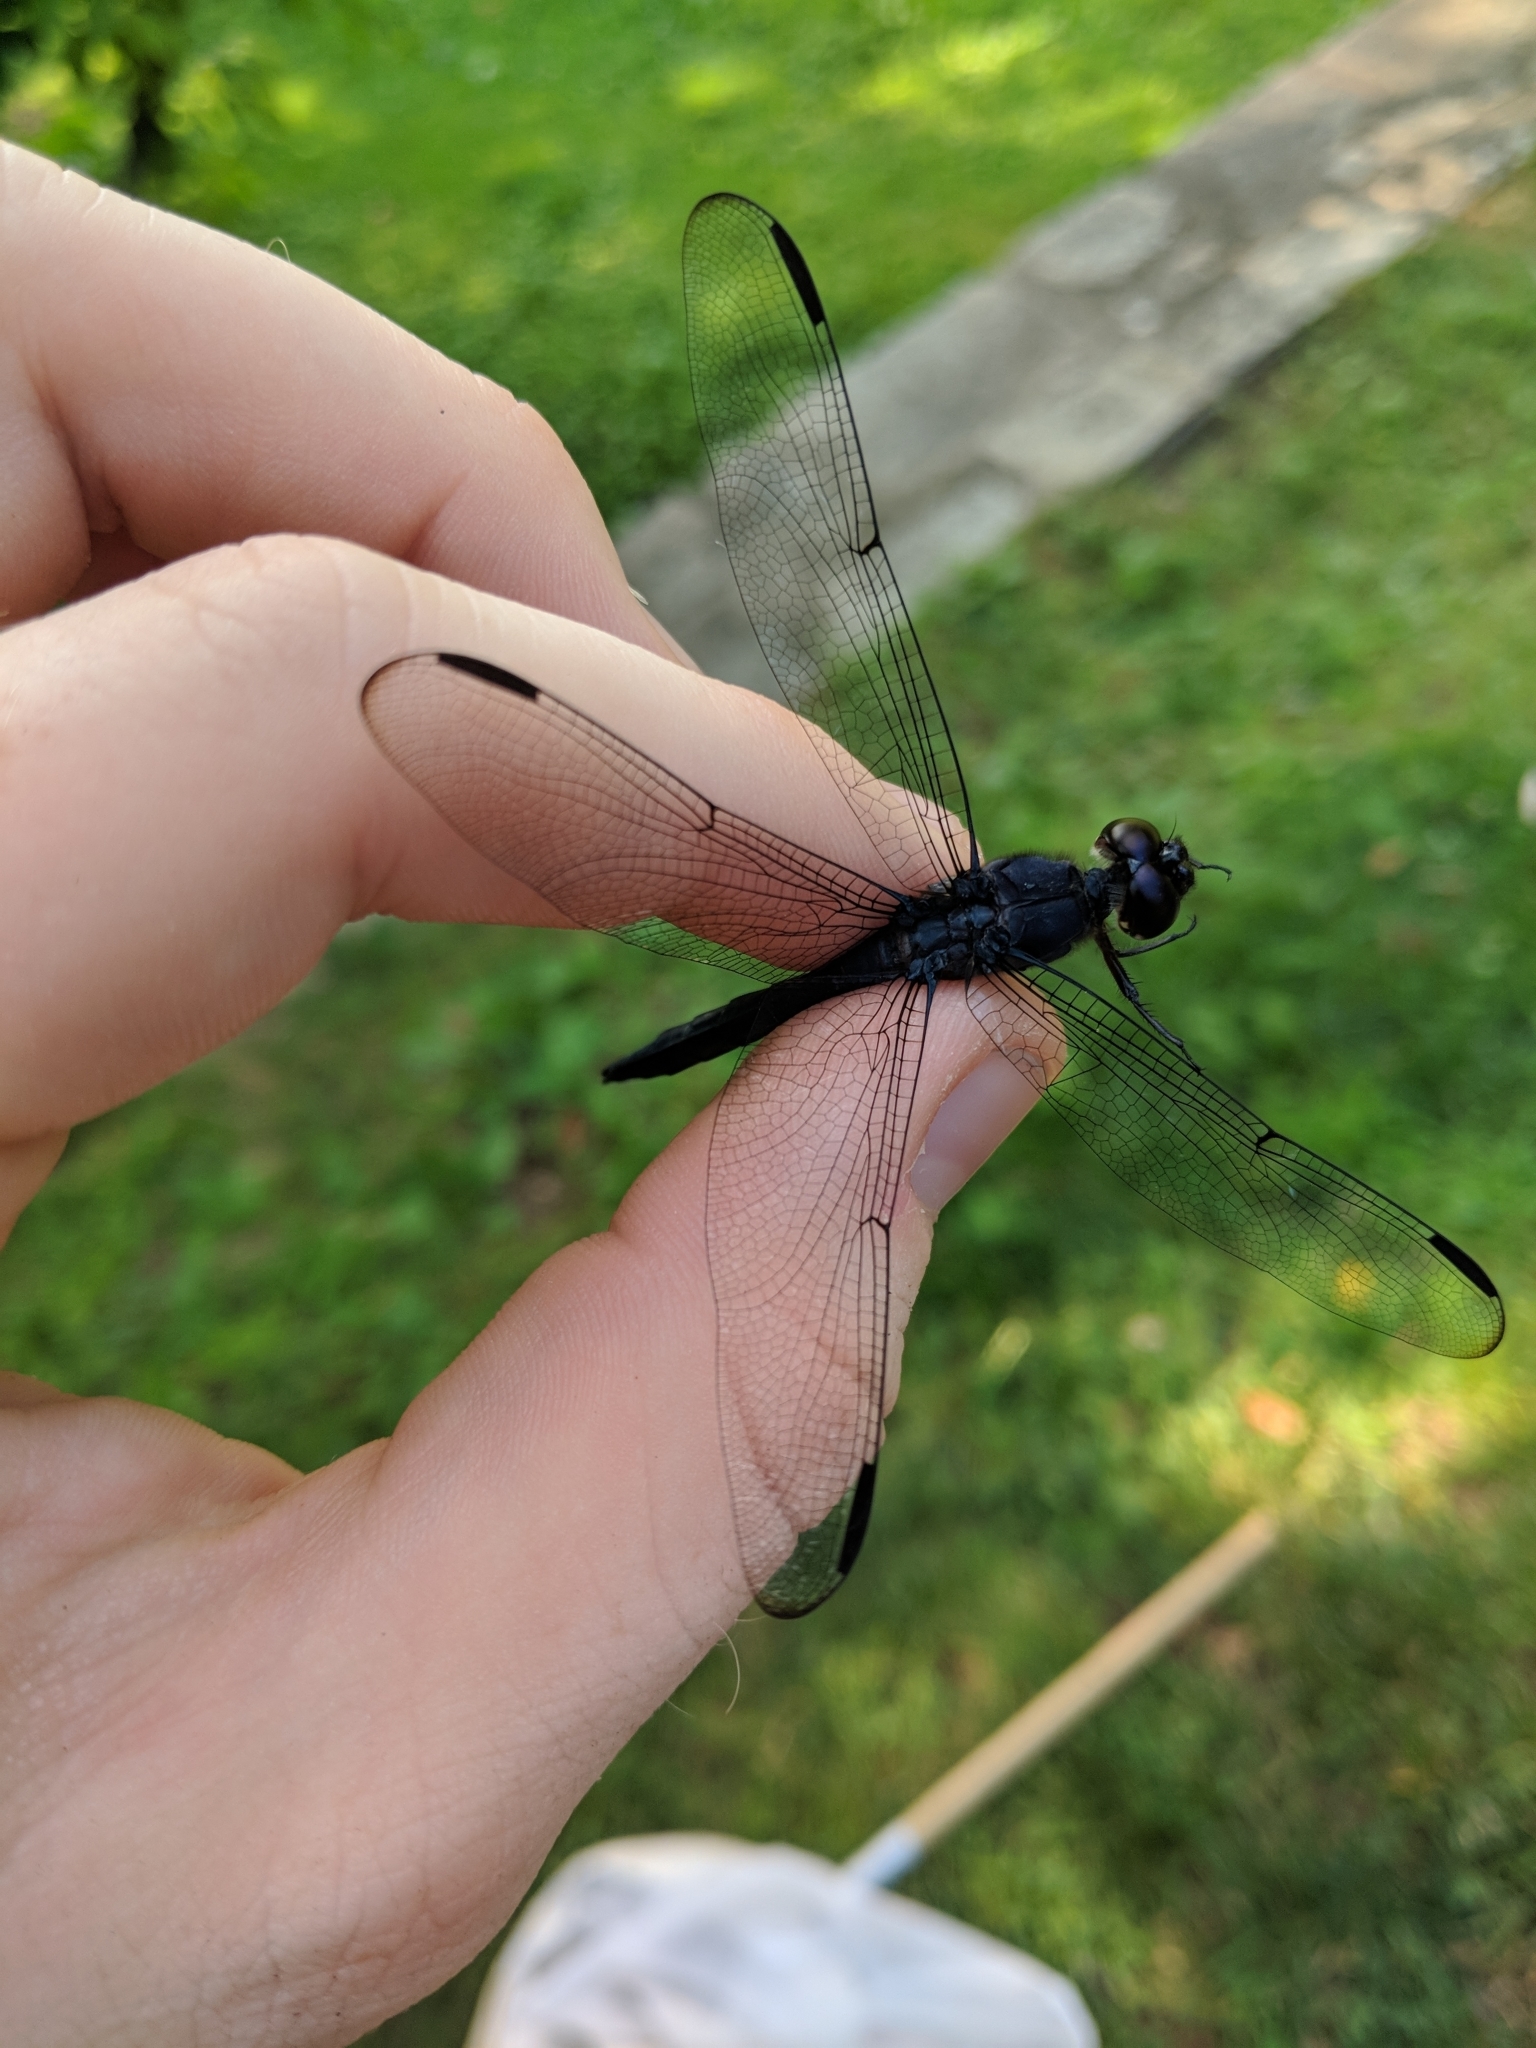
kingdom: Animalia
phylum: Arthropoda
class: Insecta
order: Odonata
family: Libellulidae
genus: Libellula
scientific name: Libellula incesta
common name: Slaty skimmer
